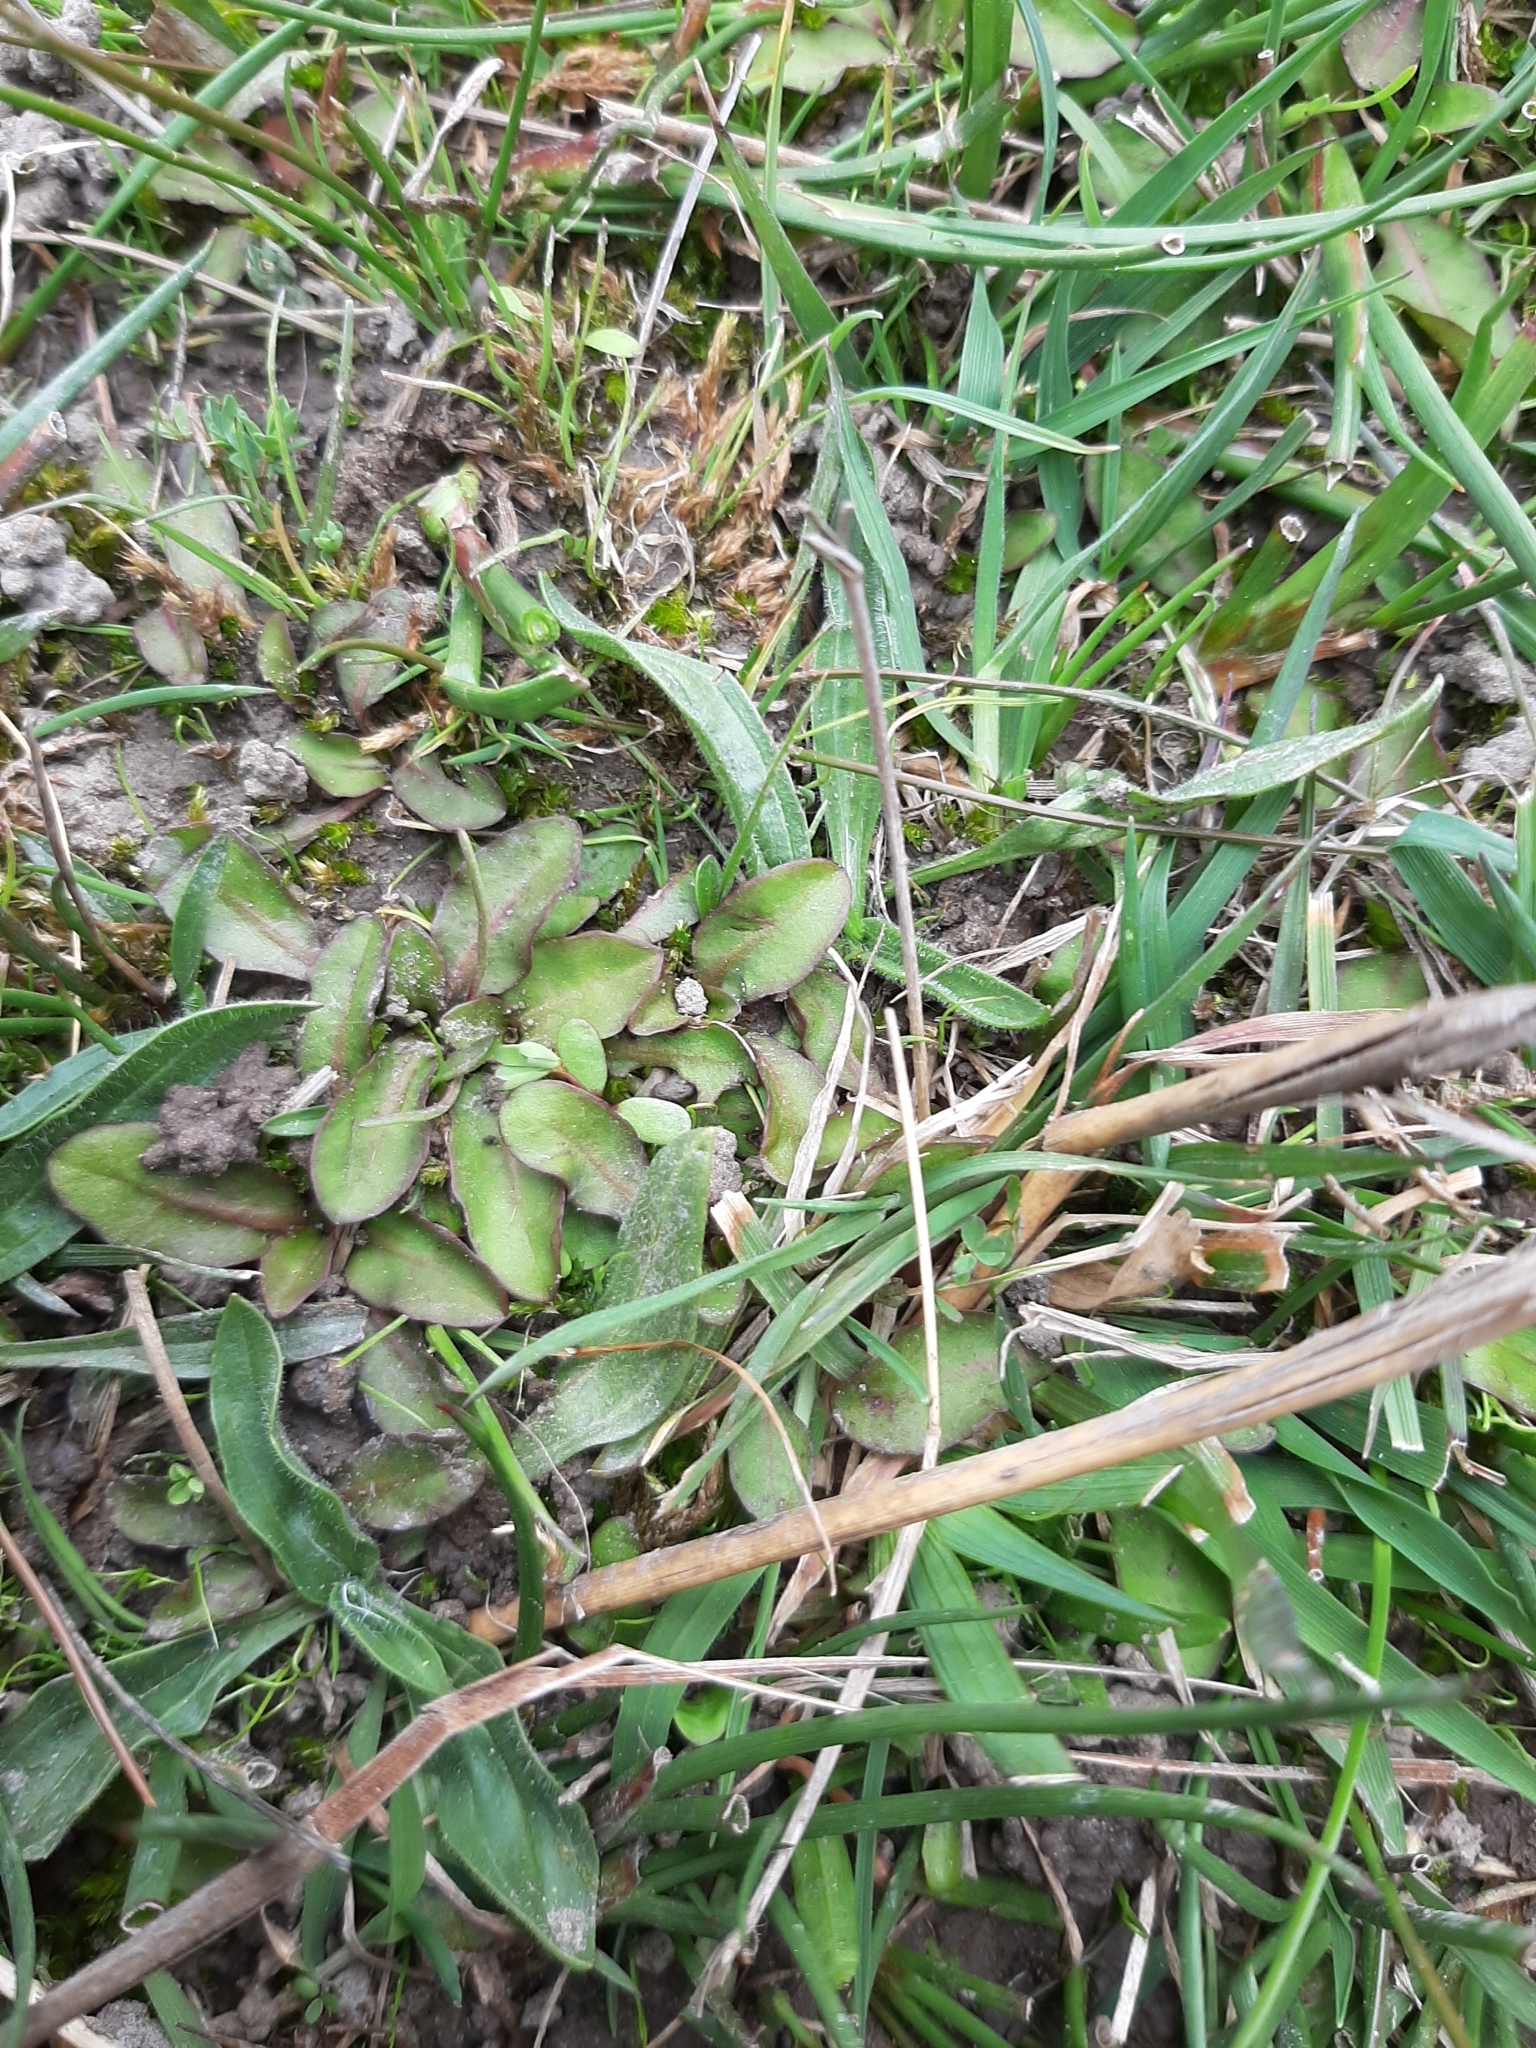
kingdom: Plantae
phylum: Tracheophyta
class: Magnoliopsida
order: Lamiales
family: Mazaceae
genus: Mazus
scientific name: Mazus novaezeelandiae
